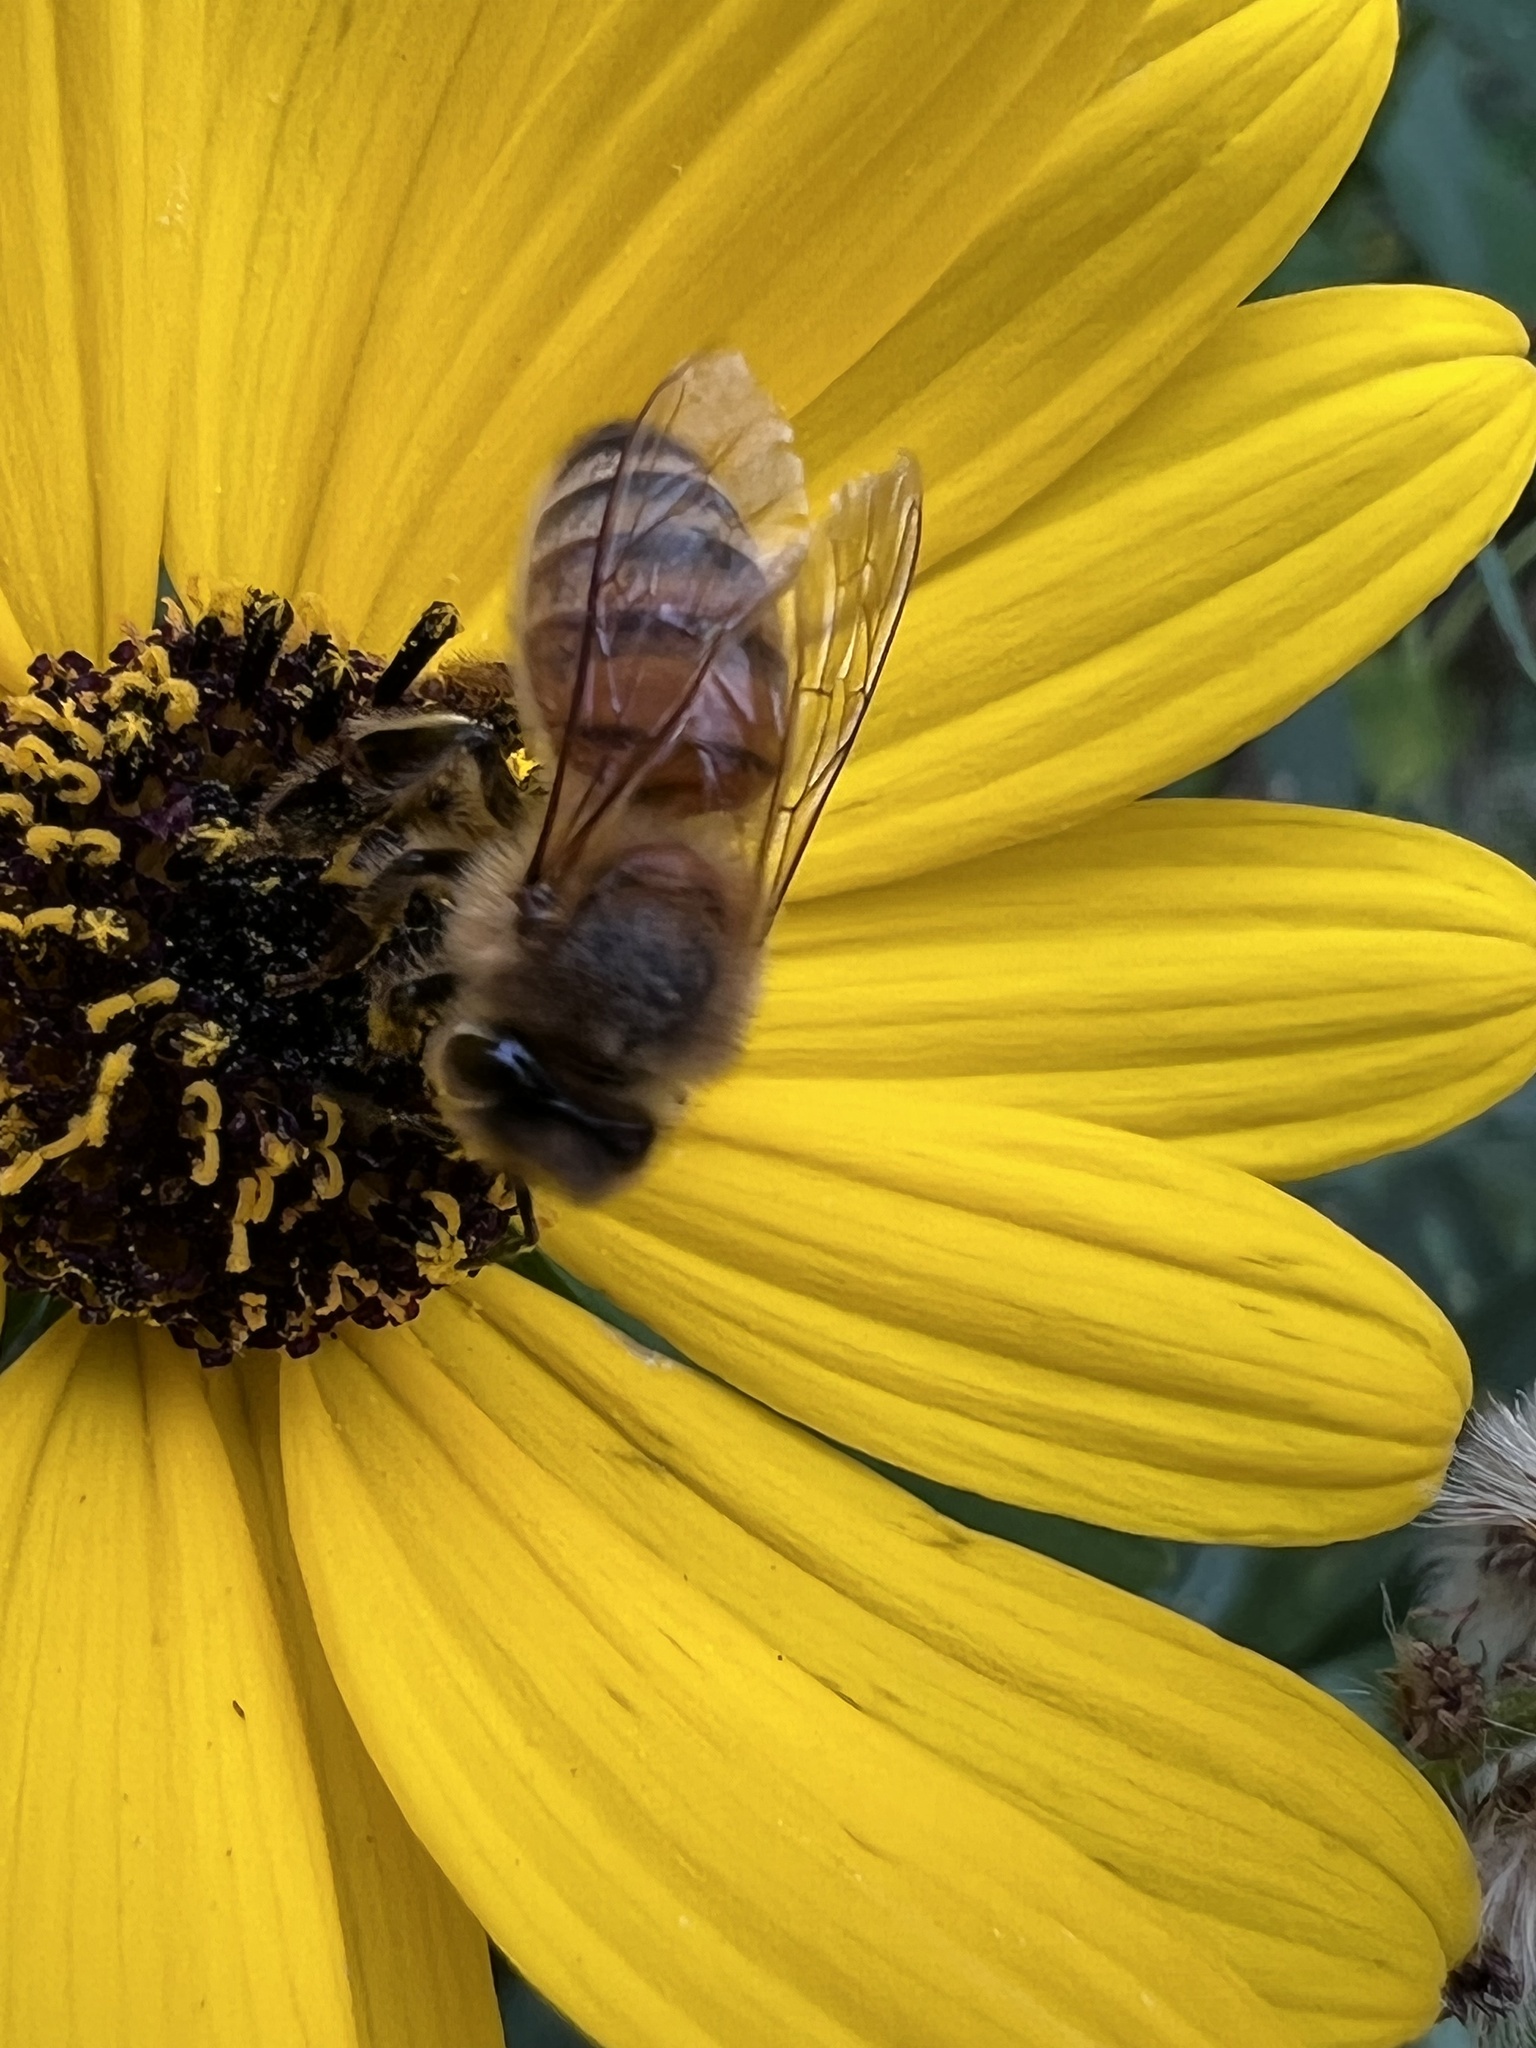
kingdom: Animalia
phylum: Arthropoda
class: Insecta
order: Hymenoptera
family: Apidae
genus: Apis
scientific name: Apis mellifera
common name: Honey bee
